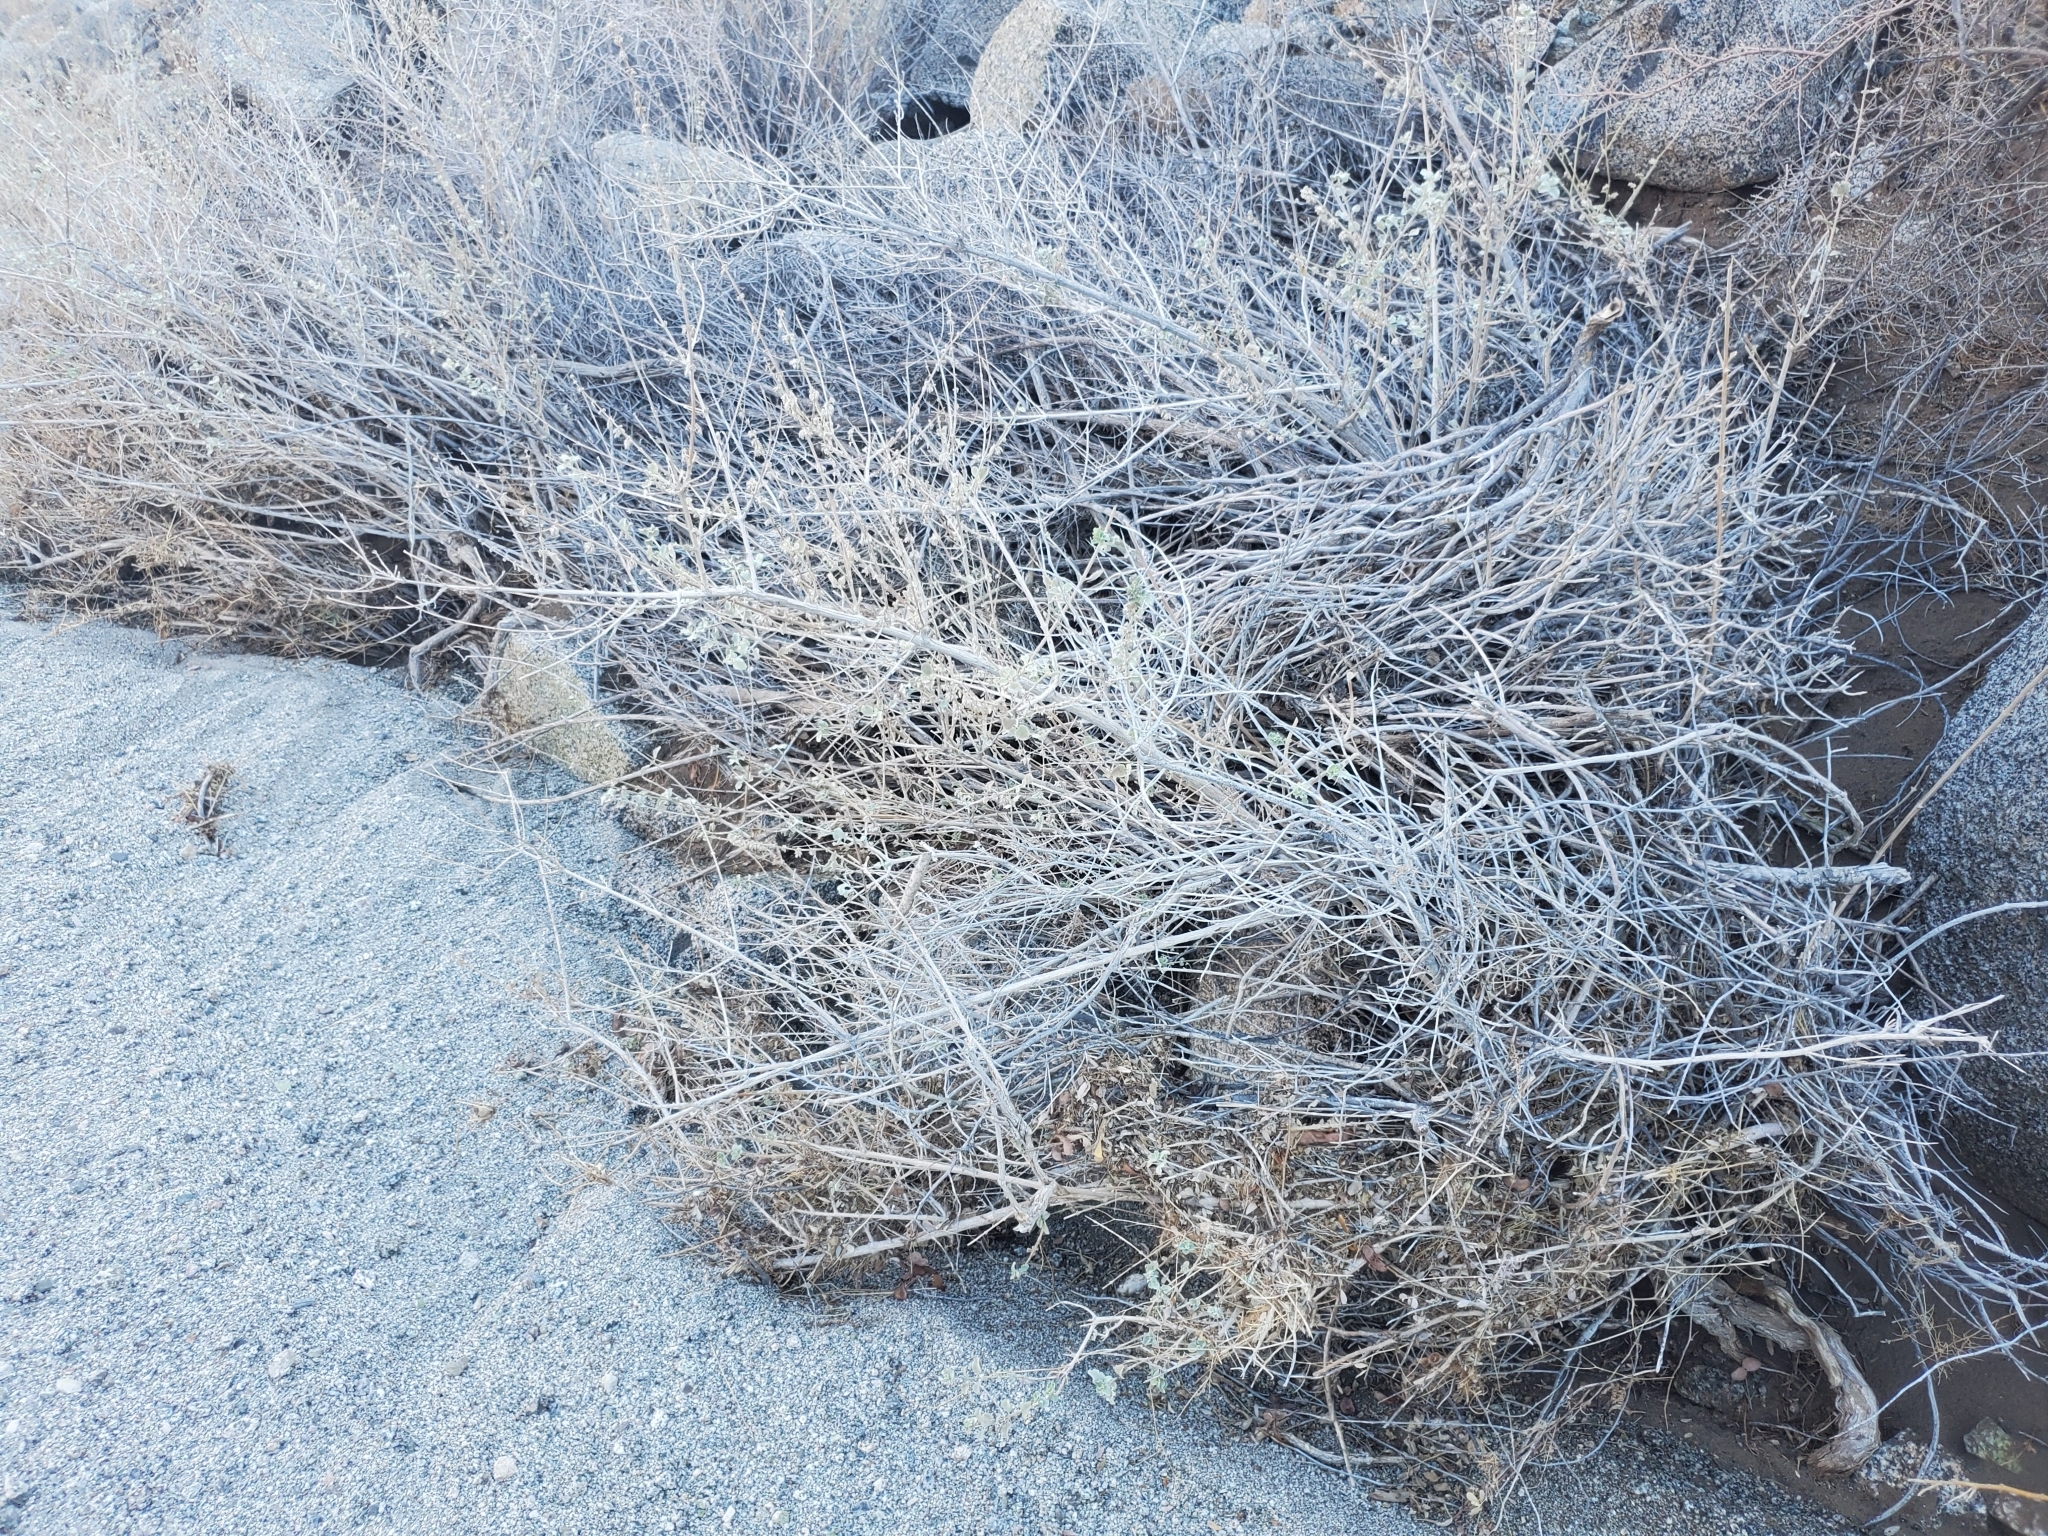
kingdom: Plantae
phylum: Tracheophyta
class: Magnoliopsida
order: Lamiales
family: Lamiaceae
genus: Condea
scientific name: Condea emoryi
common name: Chia
